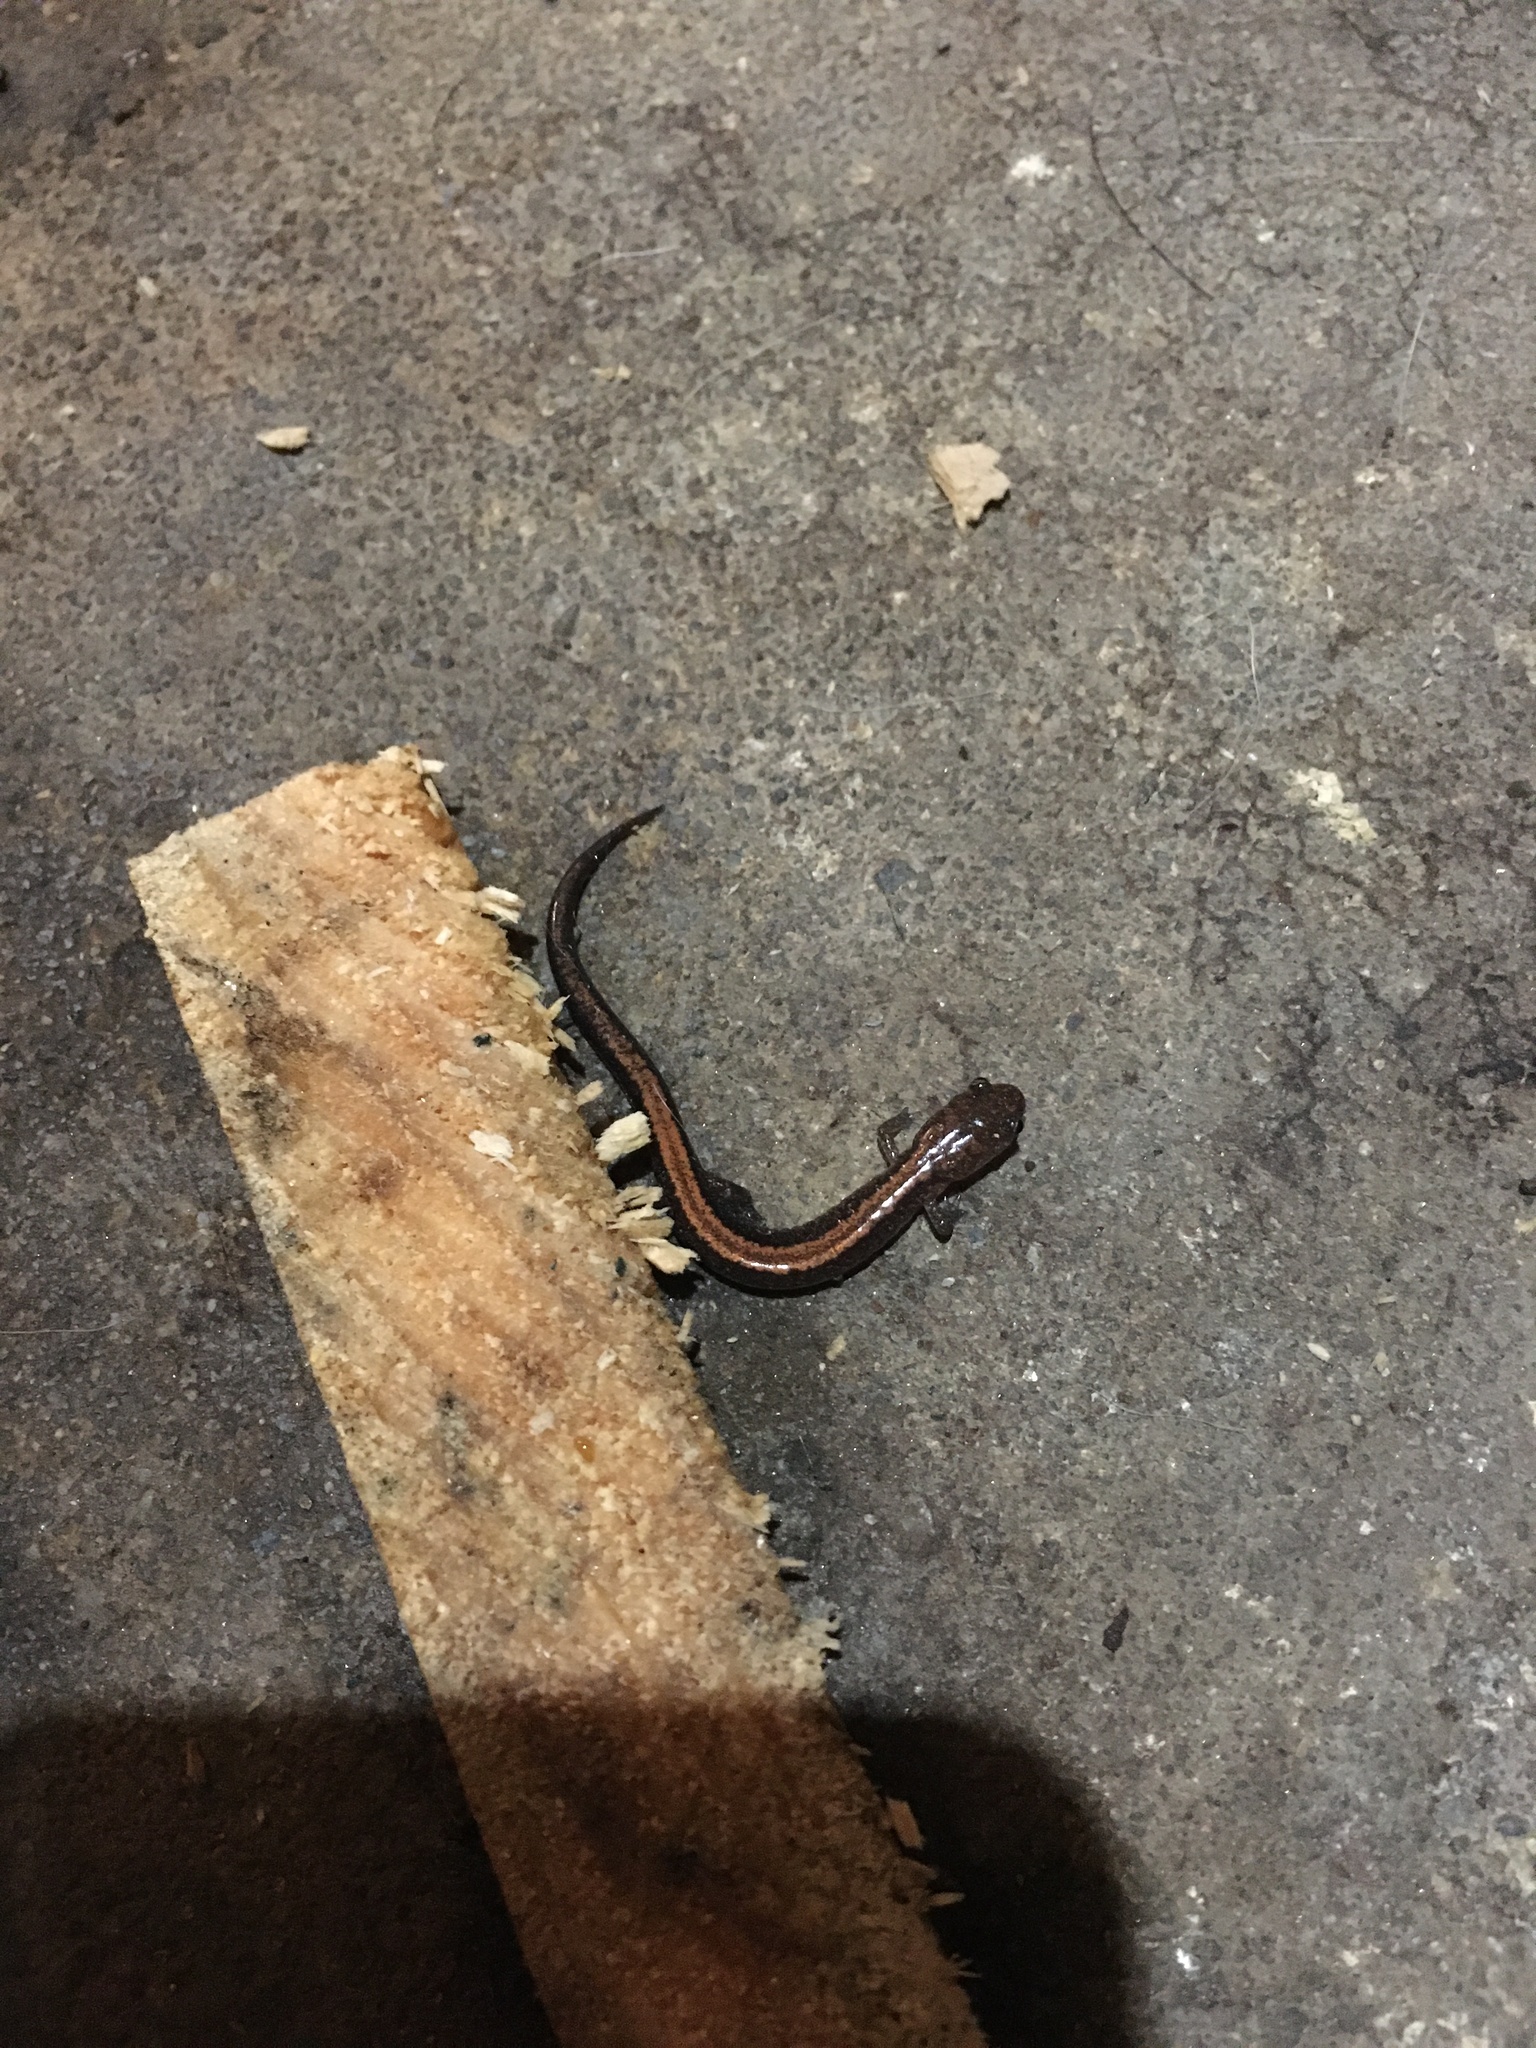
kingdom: Animalia
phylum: Chordata
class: Amphibia
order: Caudata
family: Plethodontidae
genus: Plethodon
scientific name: Plethodon cinereus
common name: Redback salamander
